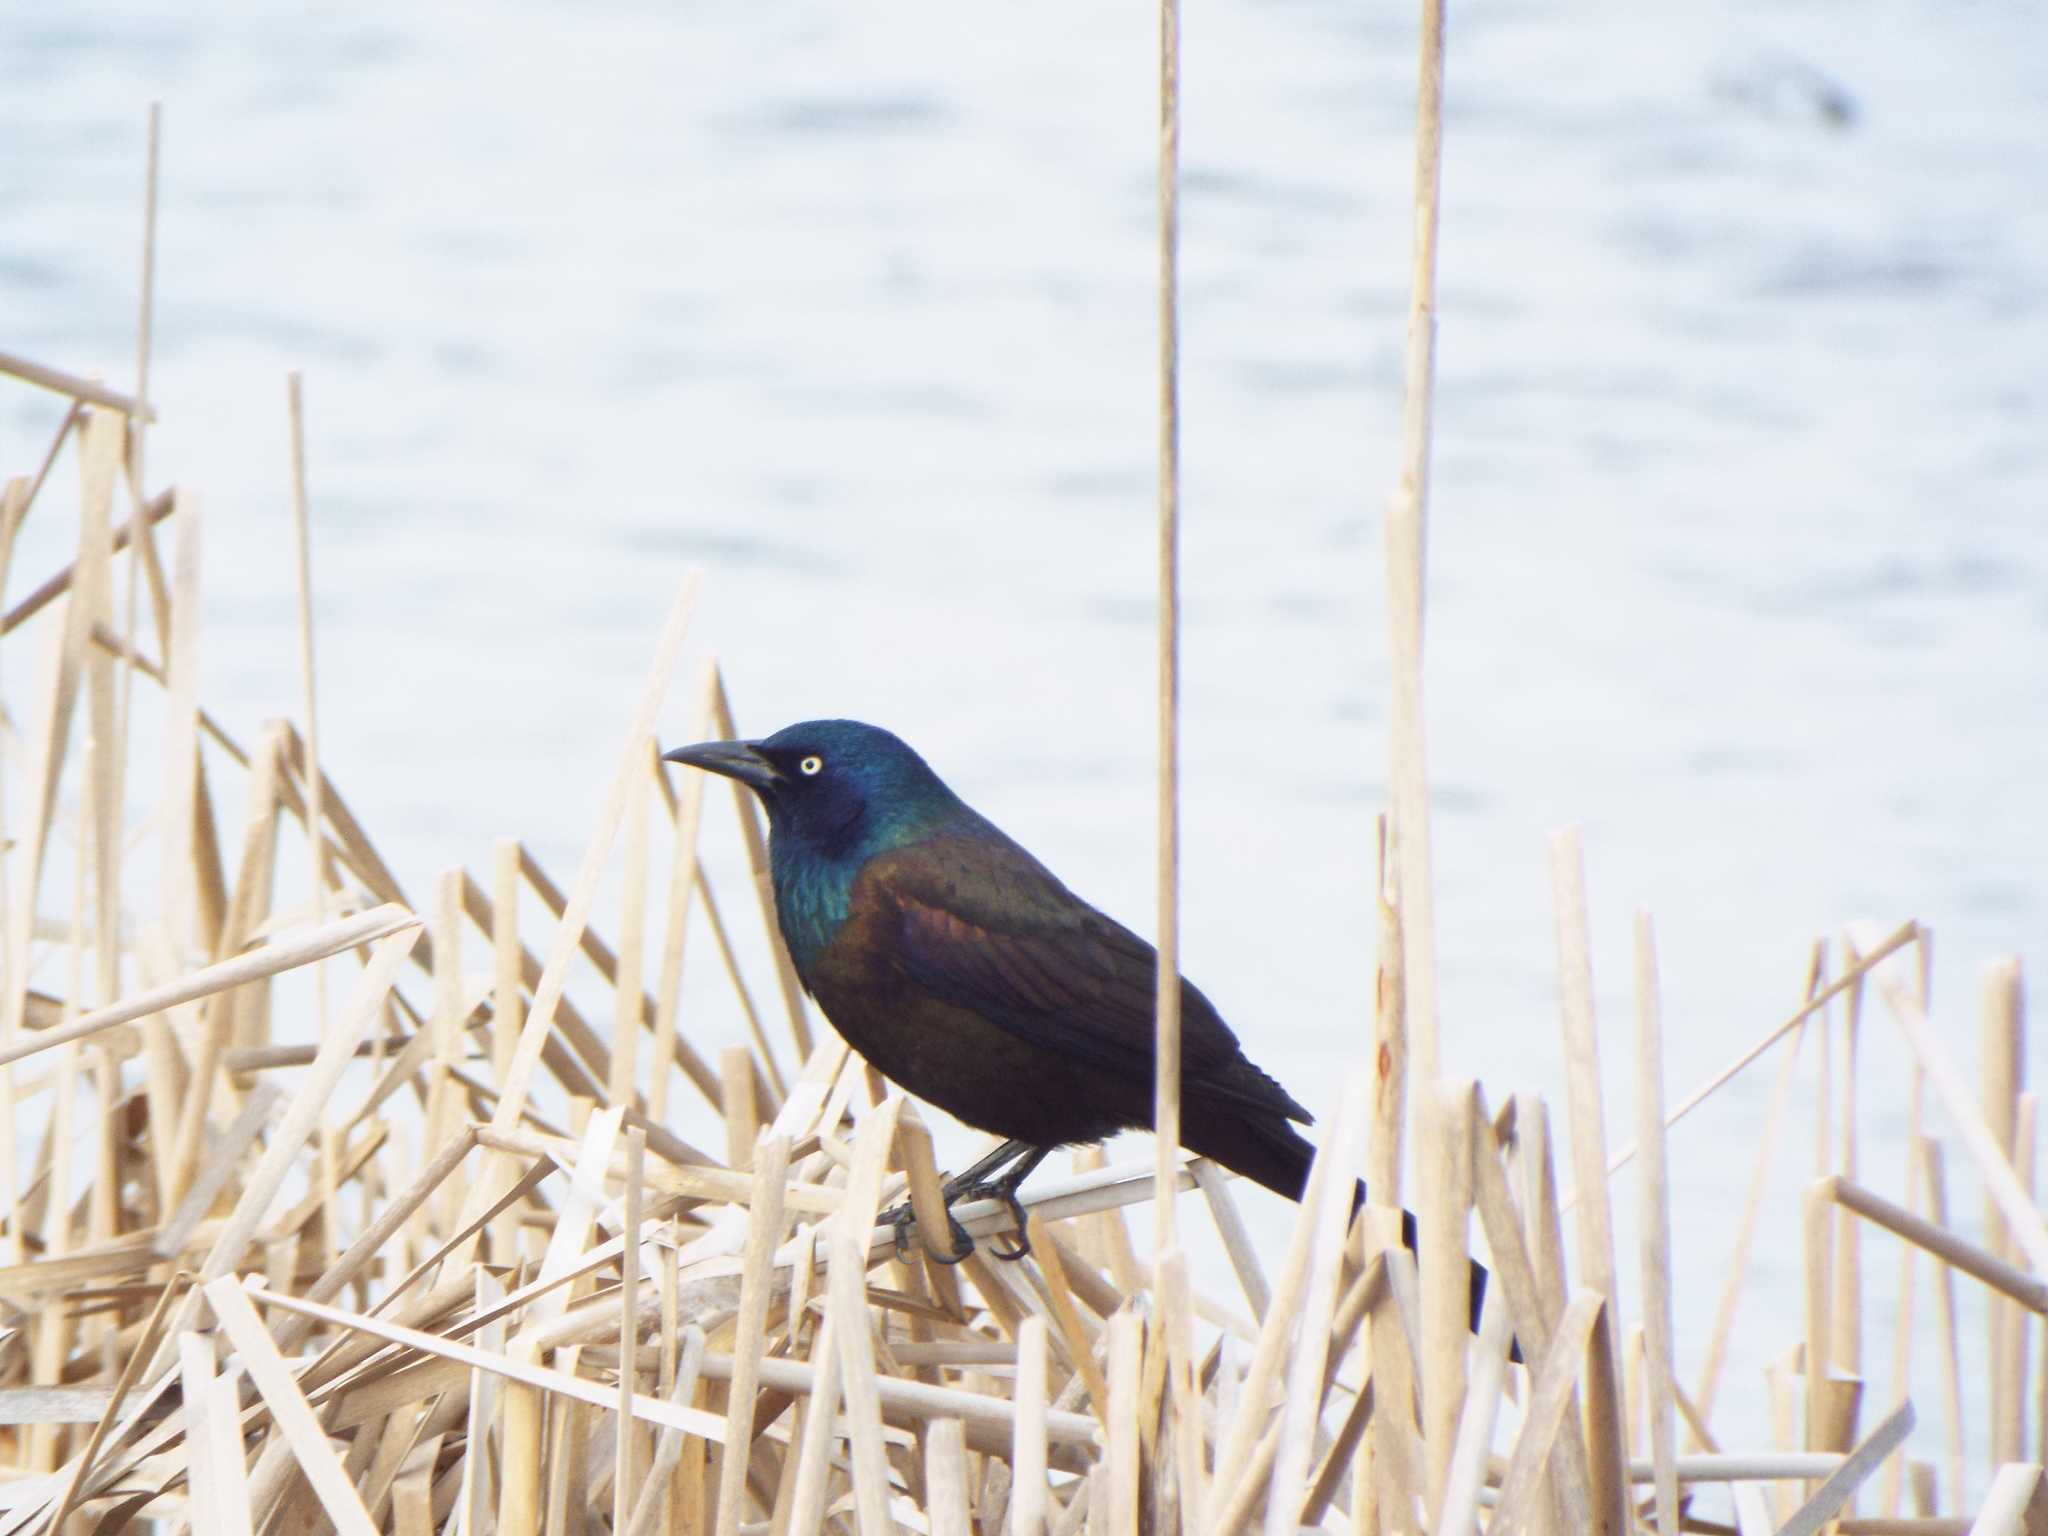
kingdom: Animalia
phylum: Chordata
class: Aves
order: Passeriformes
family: Icteridae
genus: Quiscalus
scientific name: Quiscalus quiscula
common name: Common grackle
